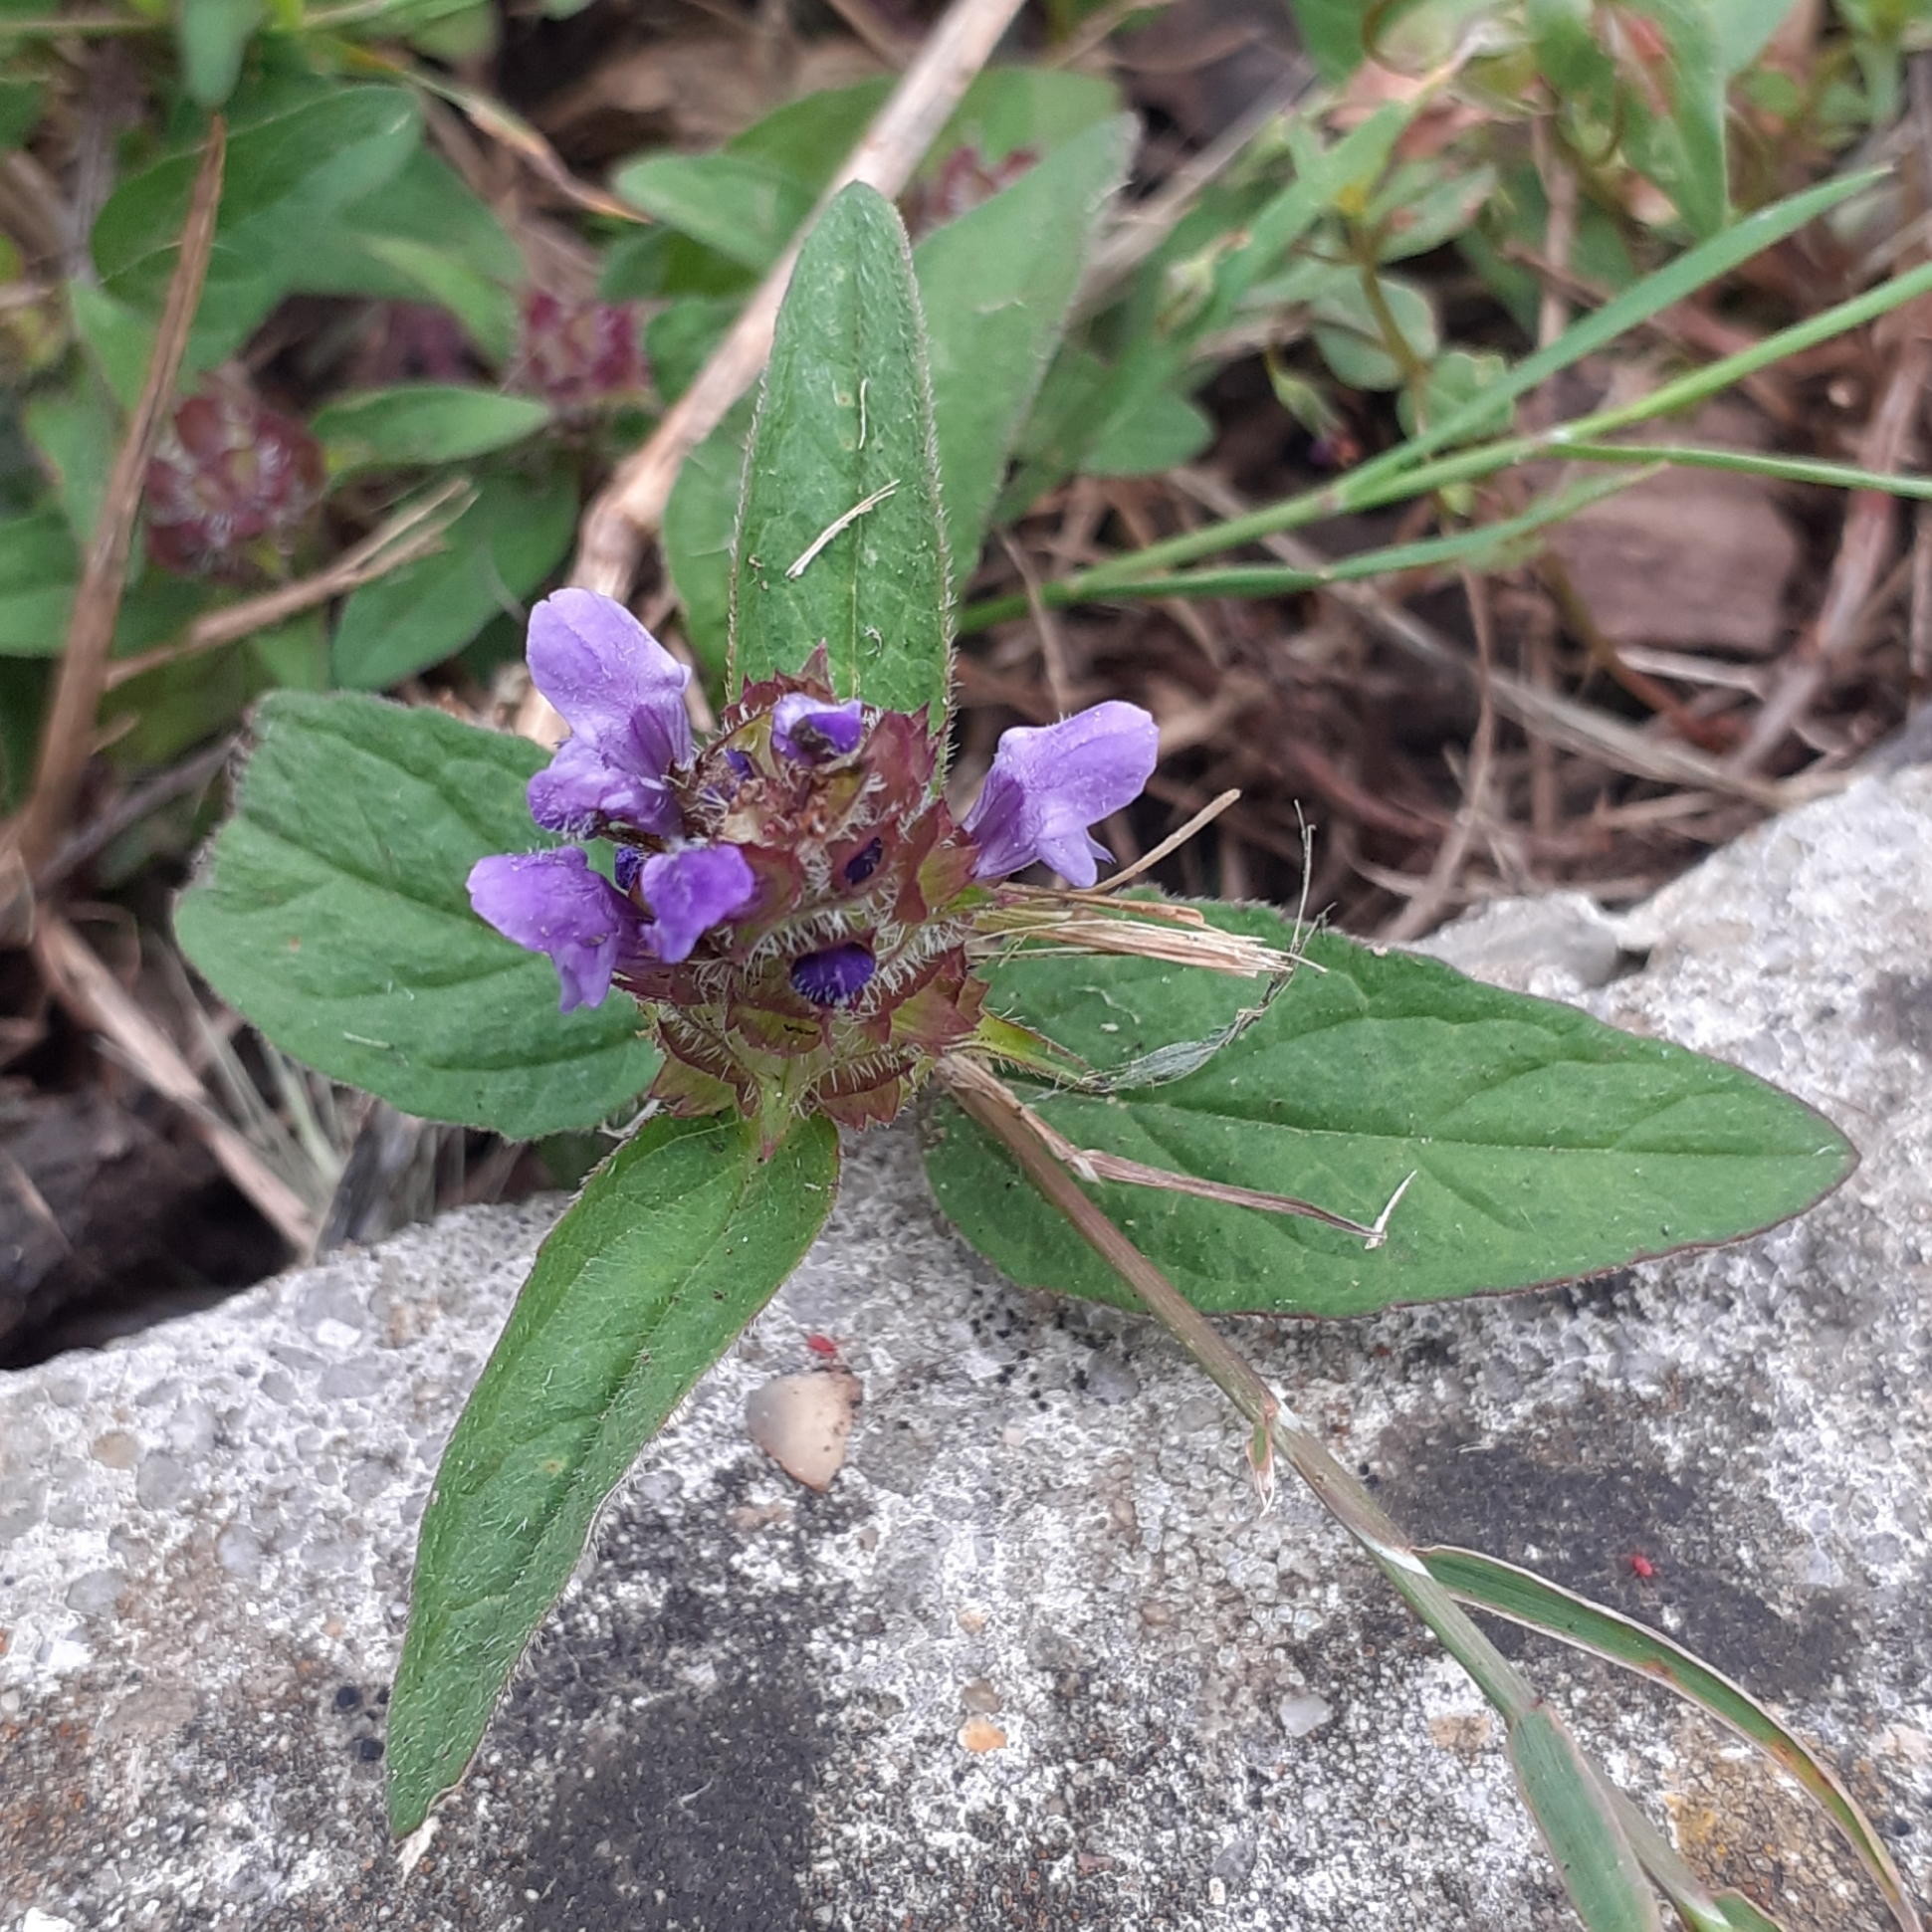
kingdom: Plantae
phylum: Tracheophyta
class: Magnoliopsida
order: Lamiales
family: Lamiaceae
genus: Prunella
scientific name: Prunella vulgaris
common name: Heal-all
